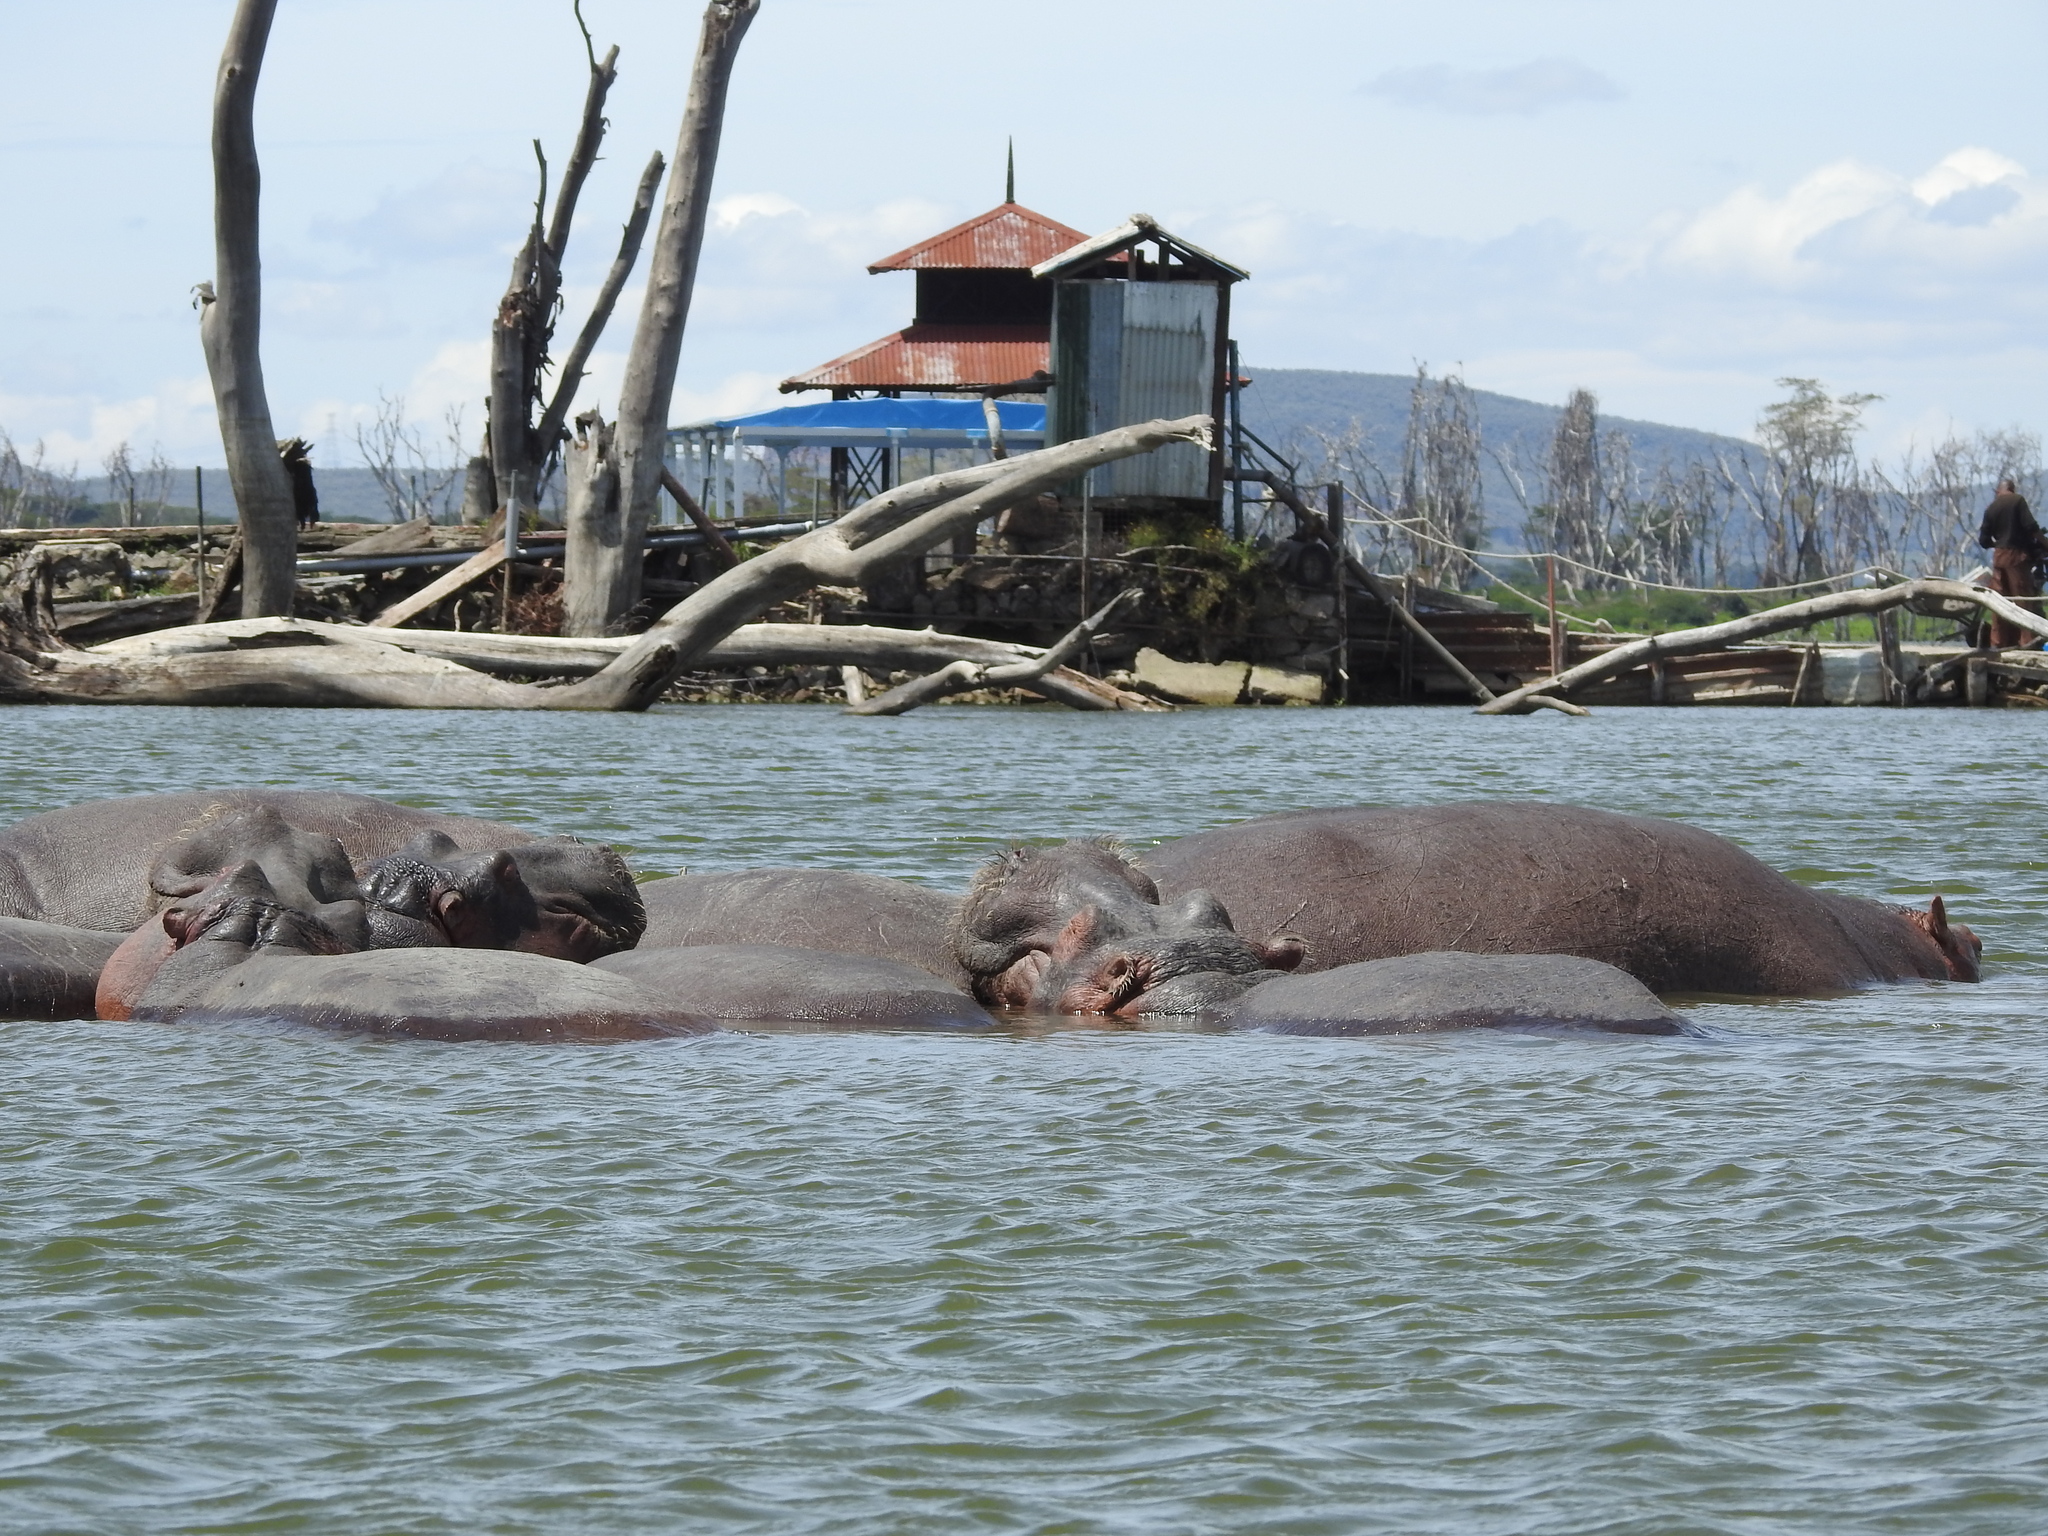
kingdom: Animalia
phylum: Chordata
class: Mammalia
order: Artiodactyla
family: Hippopotamidae
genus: Hippopotamus
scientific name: Hippopotamus amphibius
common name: Common hippopotamus
